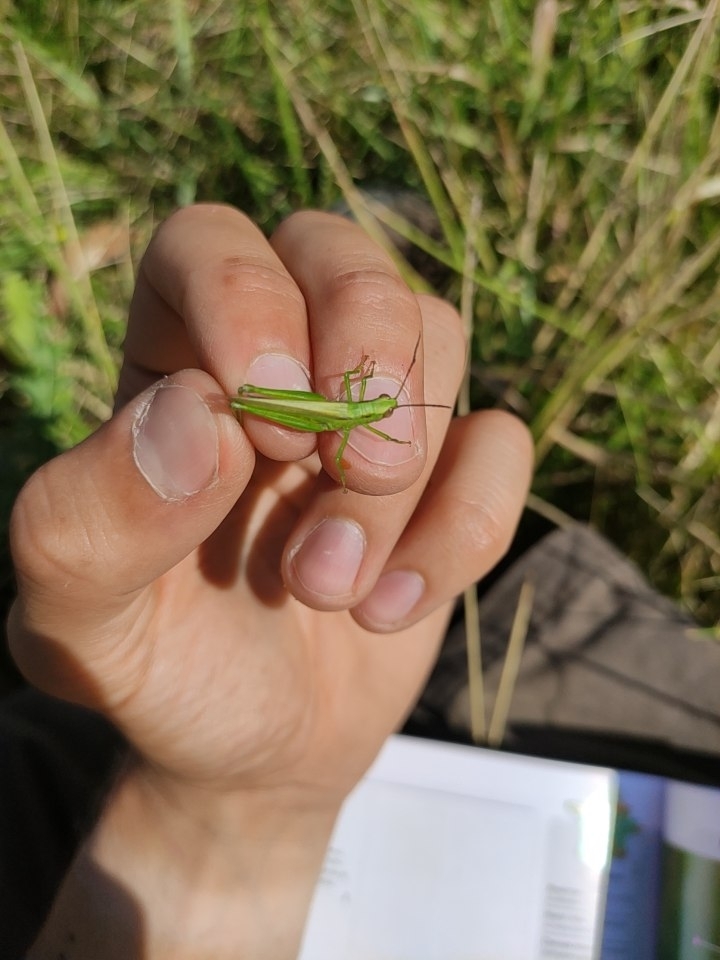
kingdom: Animalia
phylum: Arthropoda
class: Insecta
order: Orthoptera
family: Acrididae
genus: Mecostethus
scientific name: Mecostethus parapleurus
